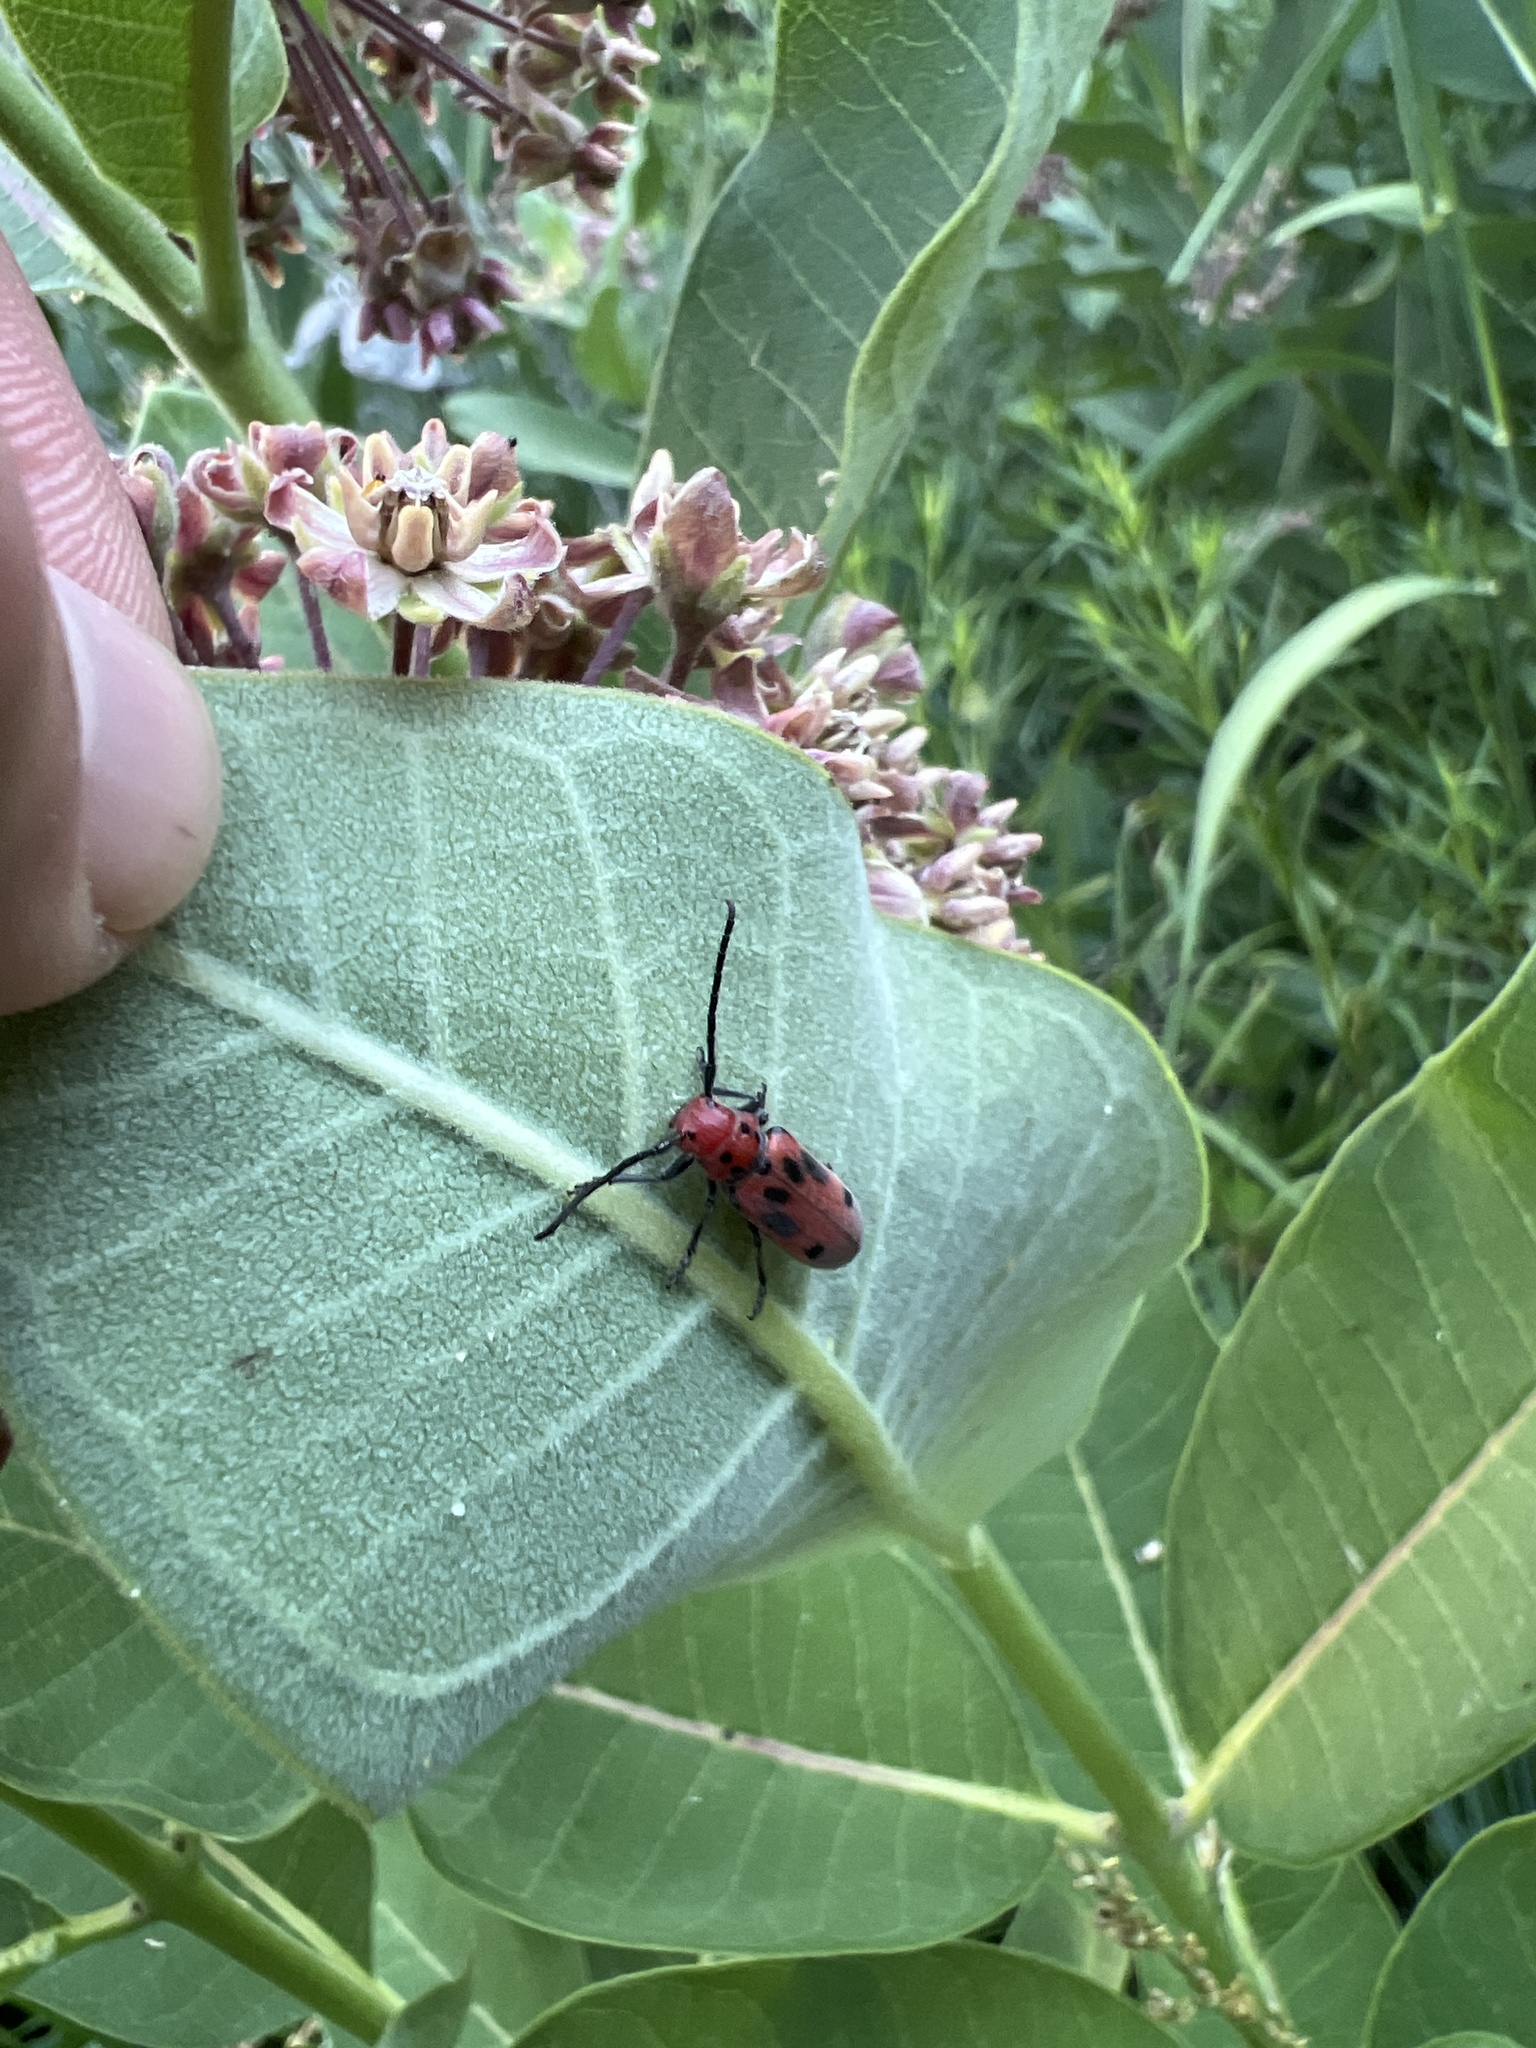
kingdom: Animalia
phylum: Arthropoda
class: Insecta
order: Coleoptera
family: Cerambycidae
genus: Tetraopes
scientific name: Tetraopes tetrophthalmus
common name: Red milkweed beetle
